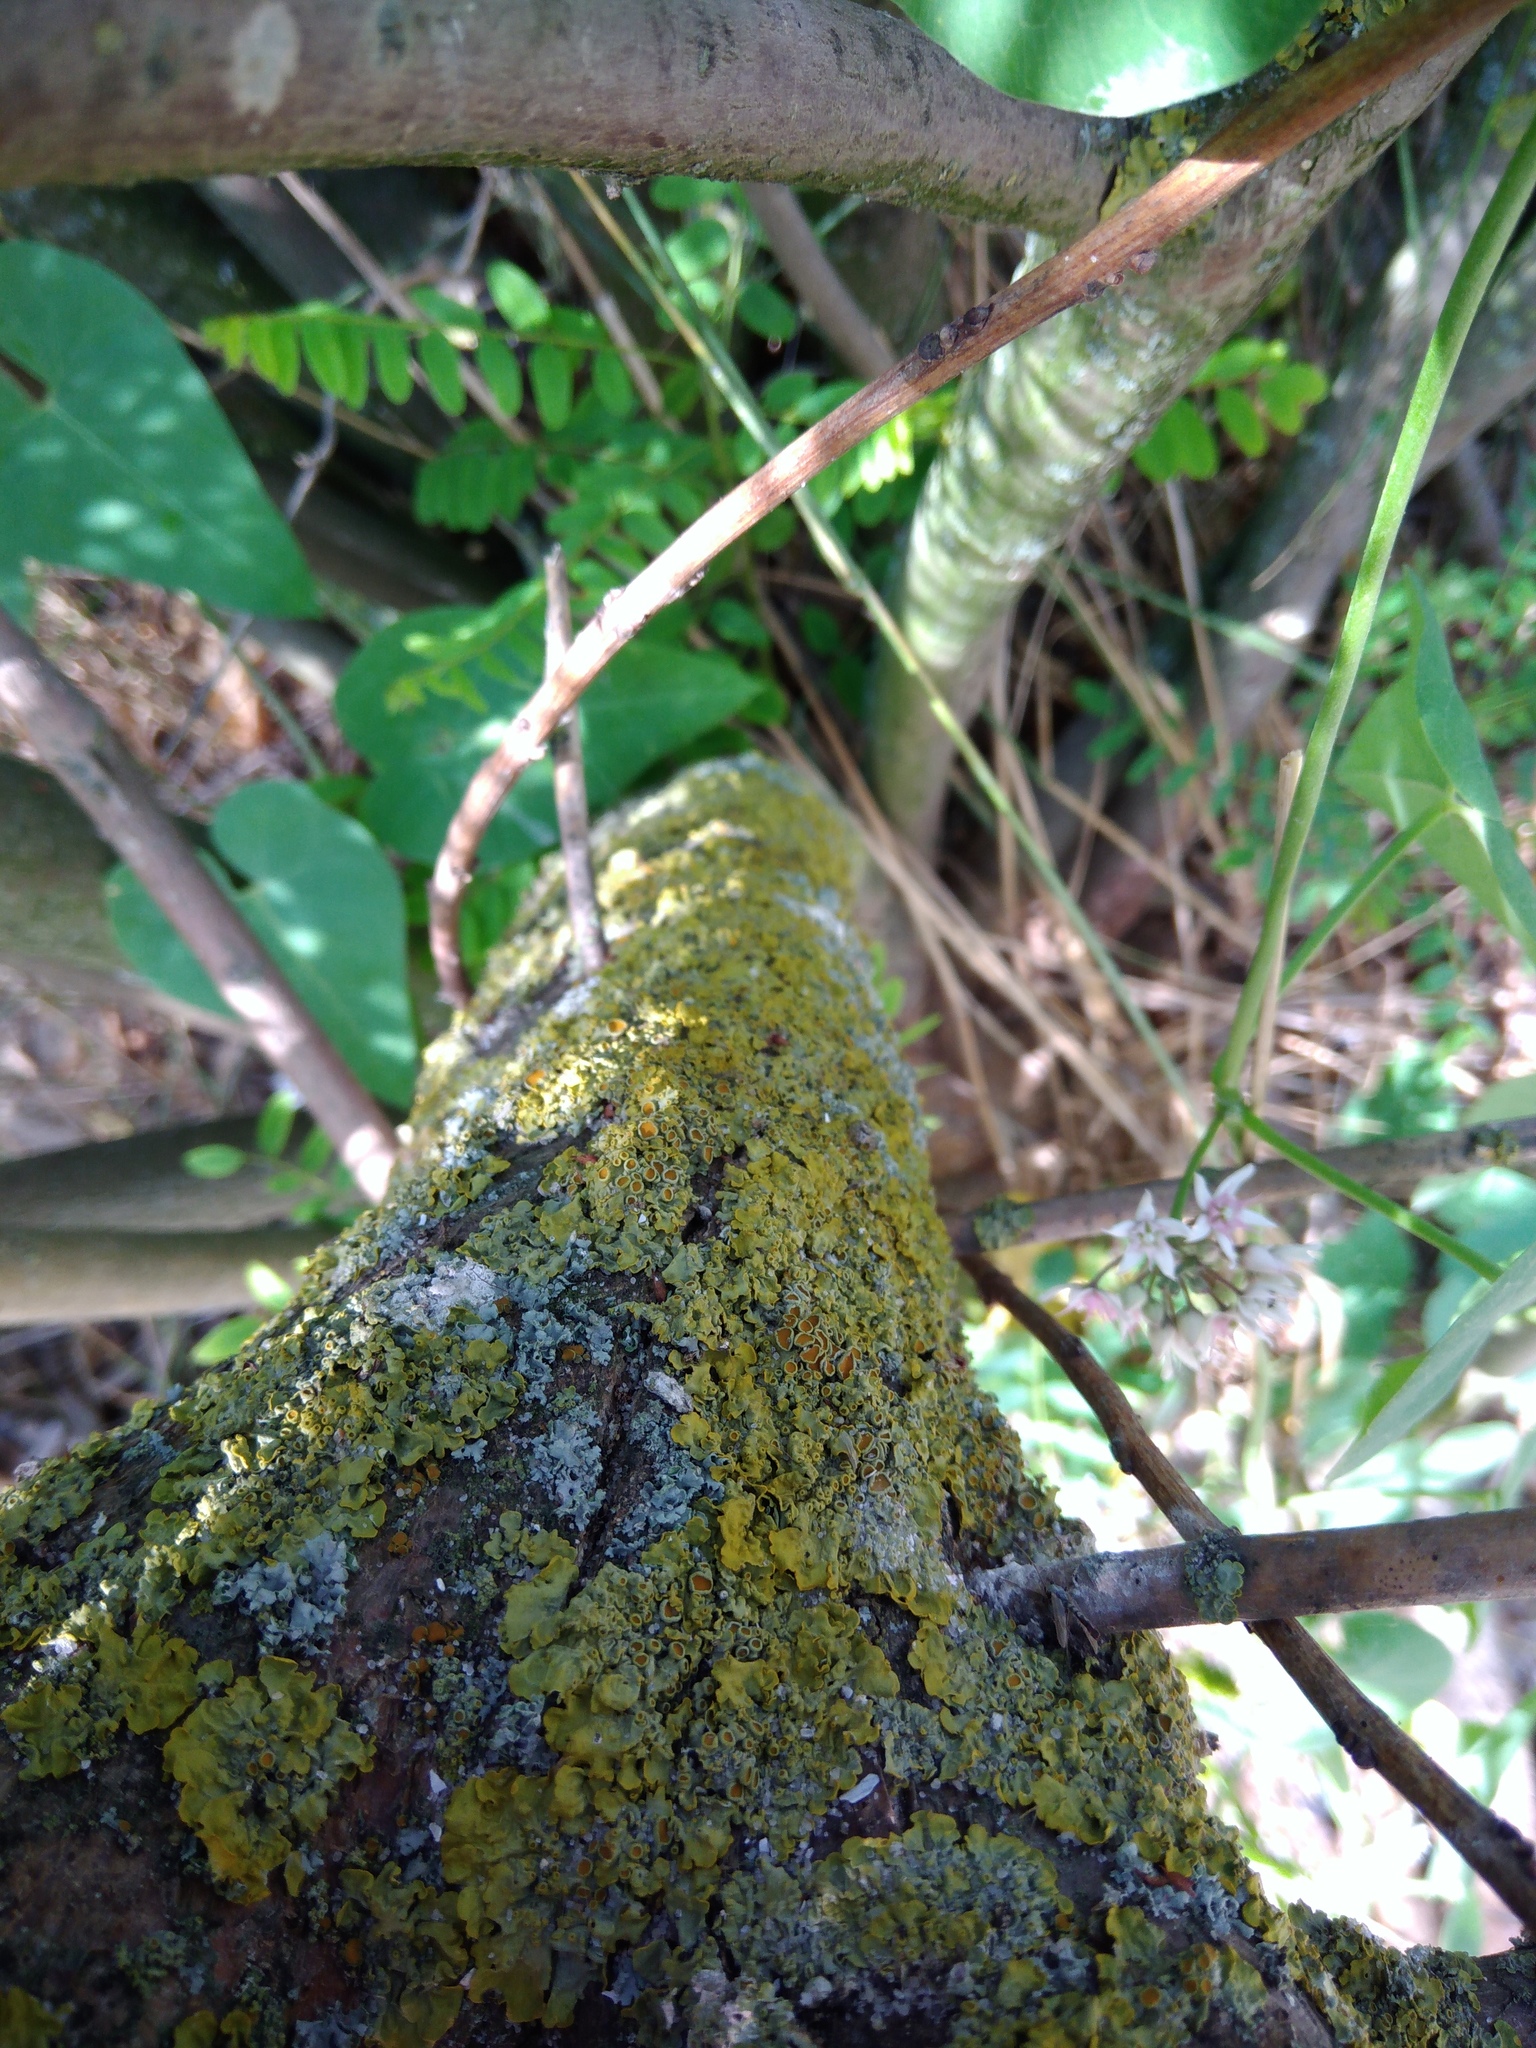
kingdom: Fungi
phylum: Ascomycota
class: Lecanoromycetes
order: Teloschistales
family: Teloschistaceae
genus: Xanthoria
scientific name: Xanthoria parietina
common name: Common orange lichen
